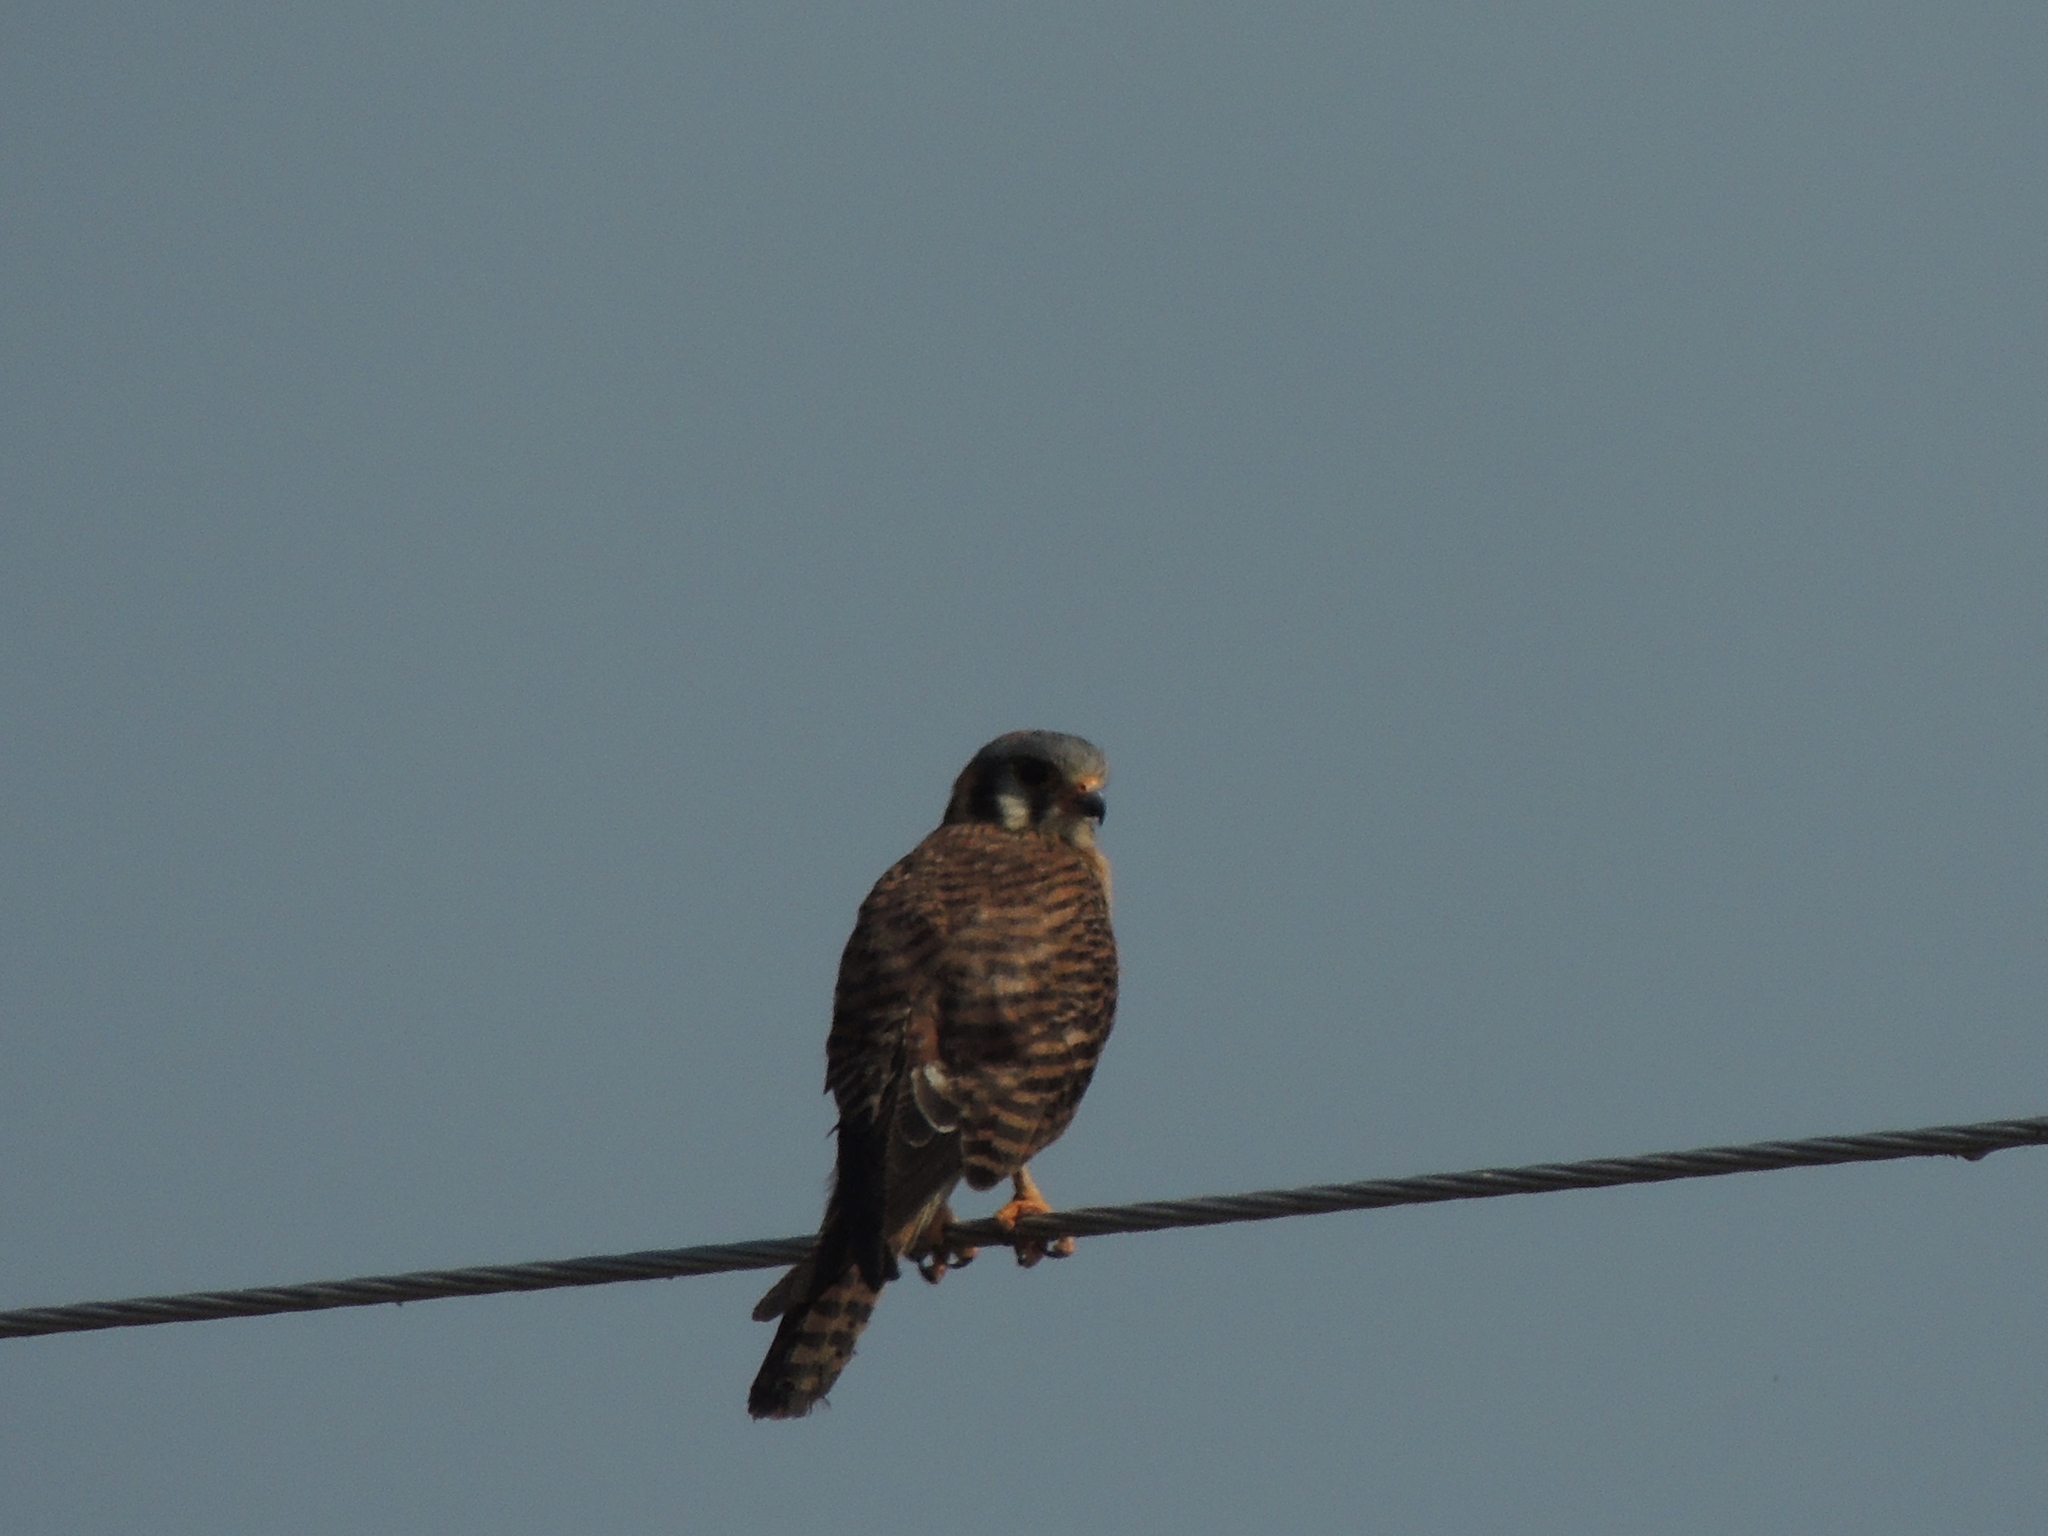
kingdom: Animalia
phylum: Chordata
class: Aves
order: Falconiformes
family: Falconidae
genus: Falco
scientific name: Falco sparverius
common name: American kestrel
